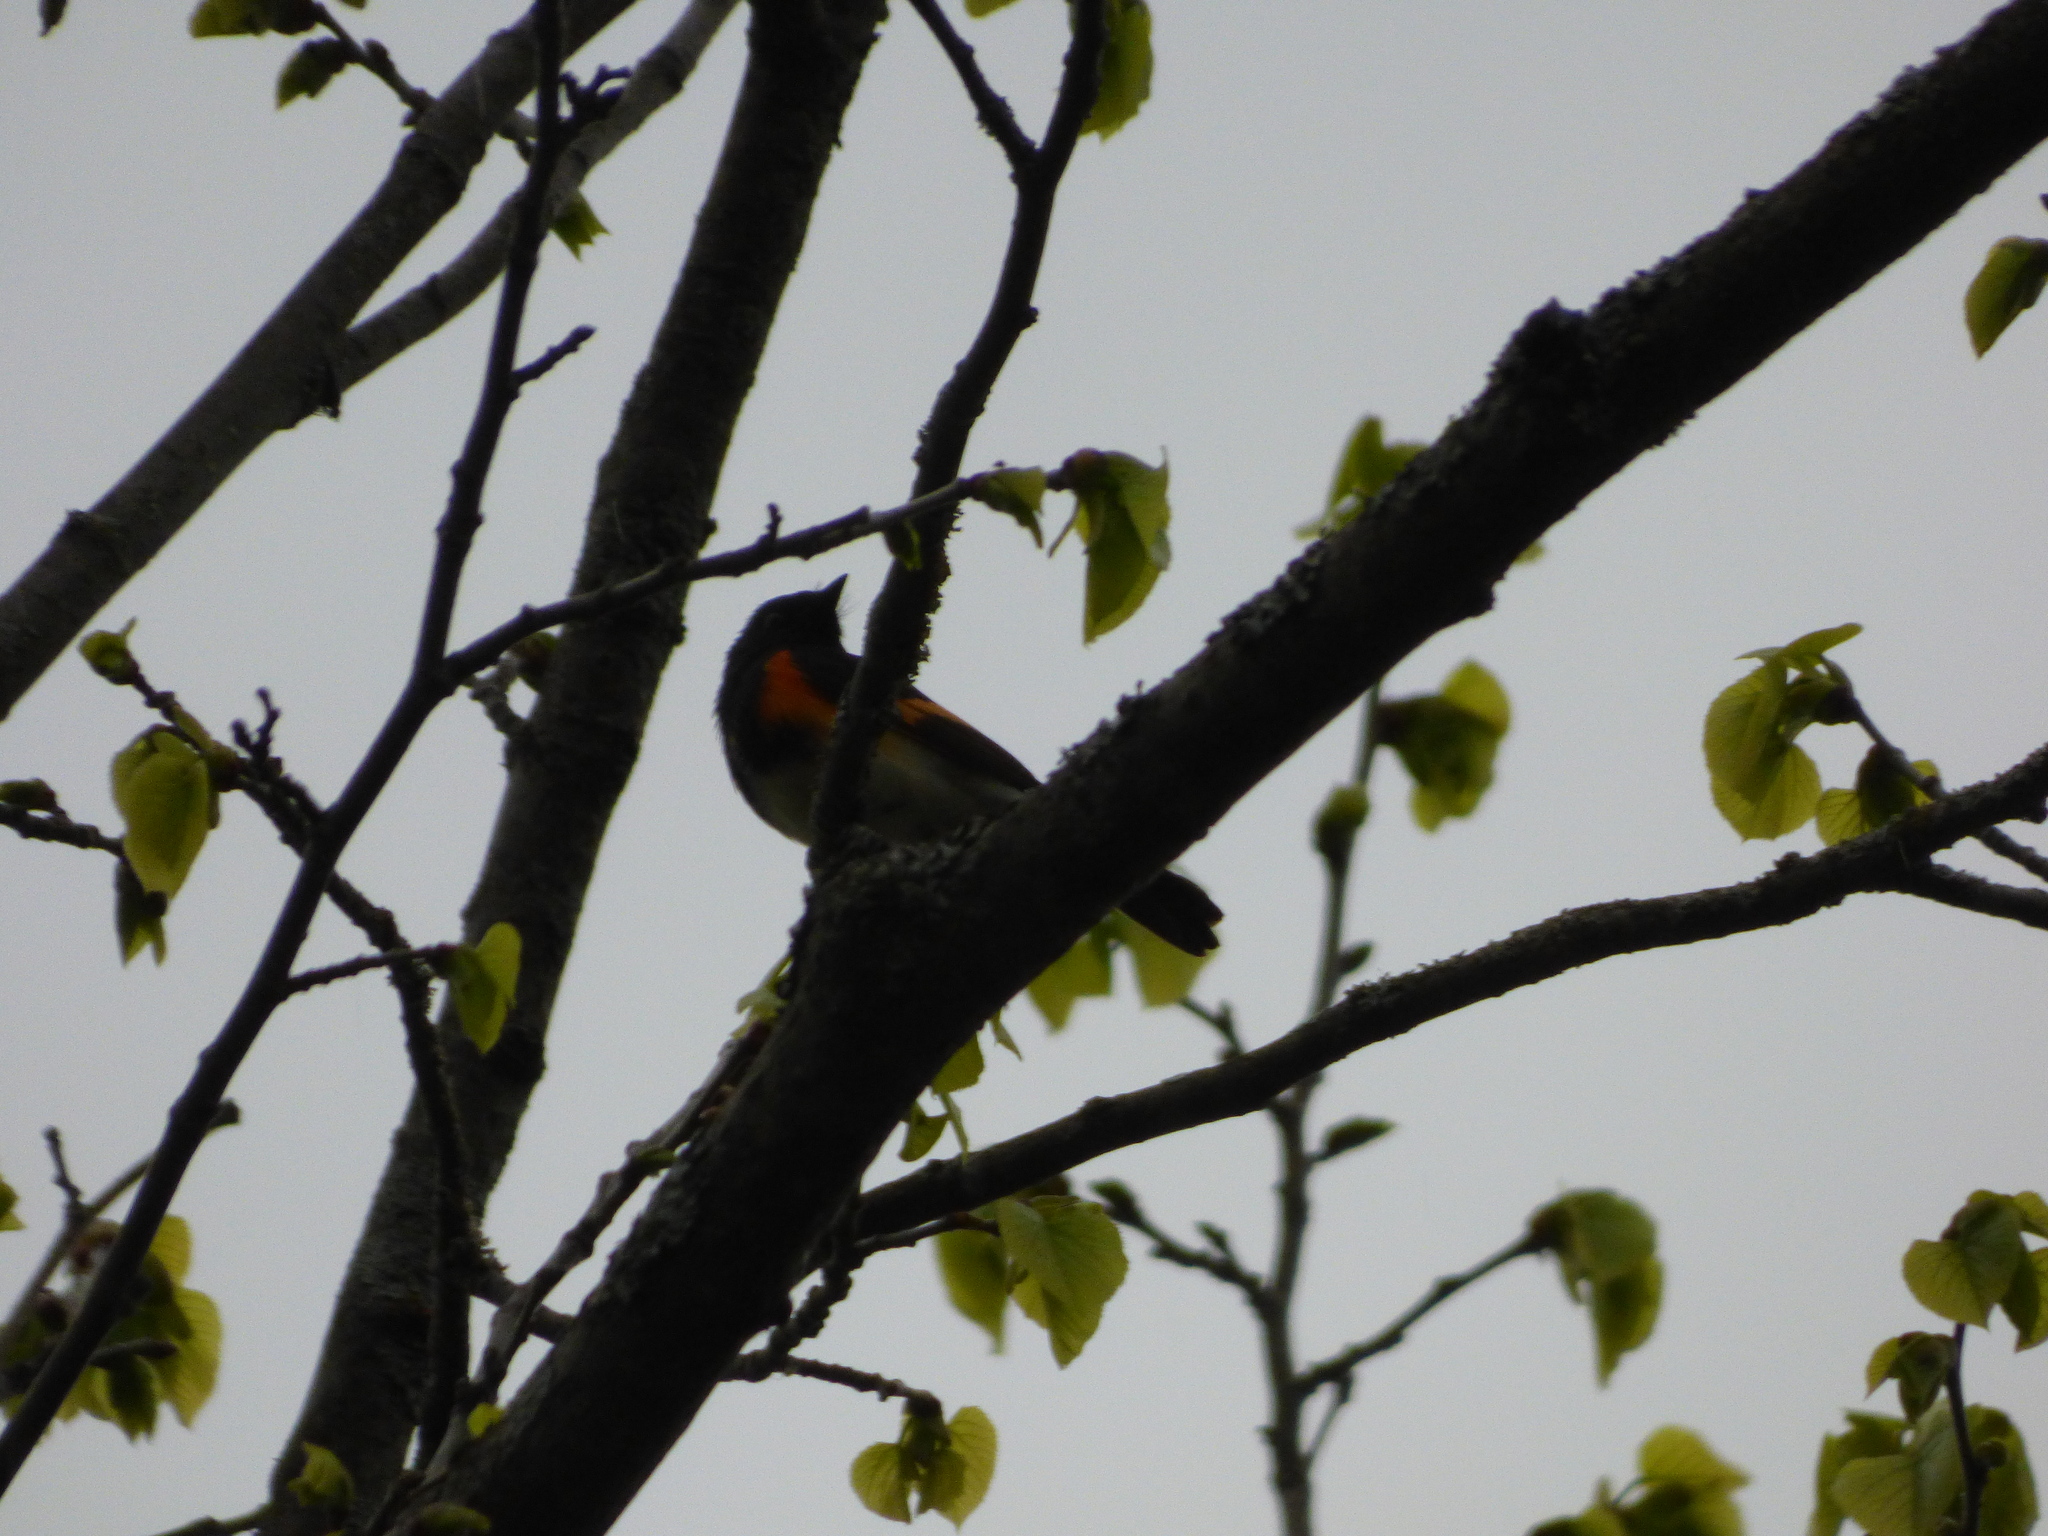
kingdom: Animalia
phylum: Chordata
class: Aves
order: Passeriformes
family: Parulidae
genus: Setophaga
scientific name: Setophaga ruticilla
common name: American redstart
